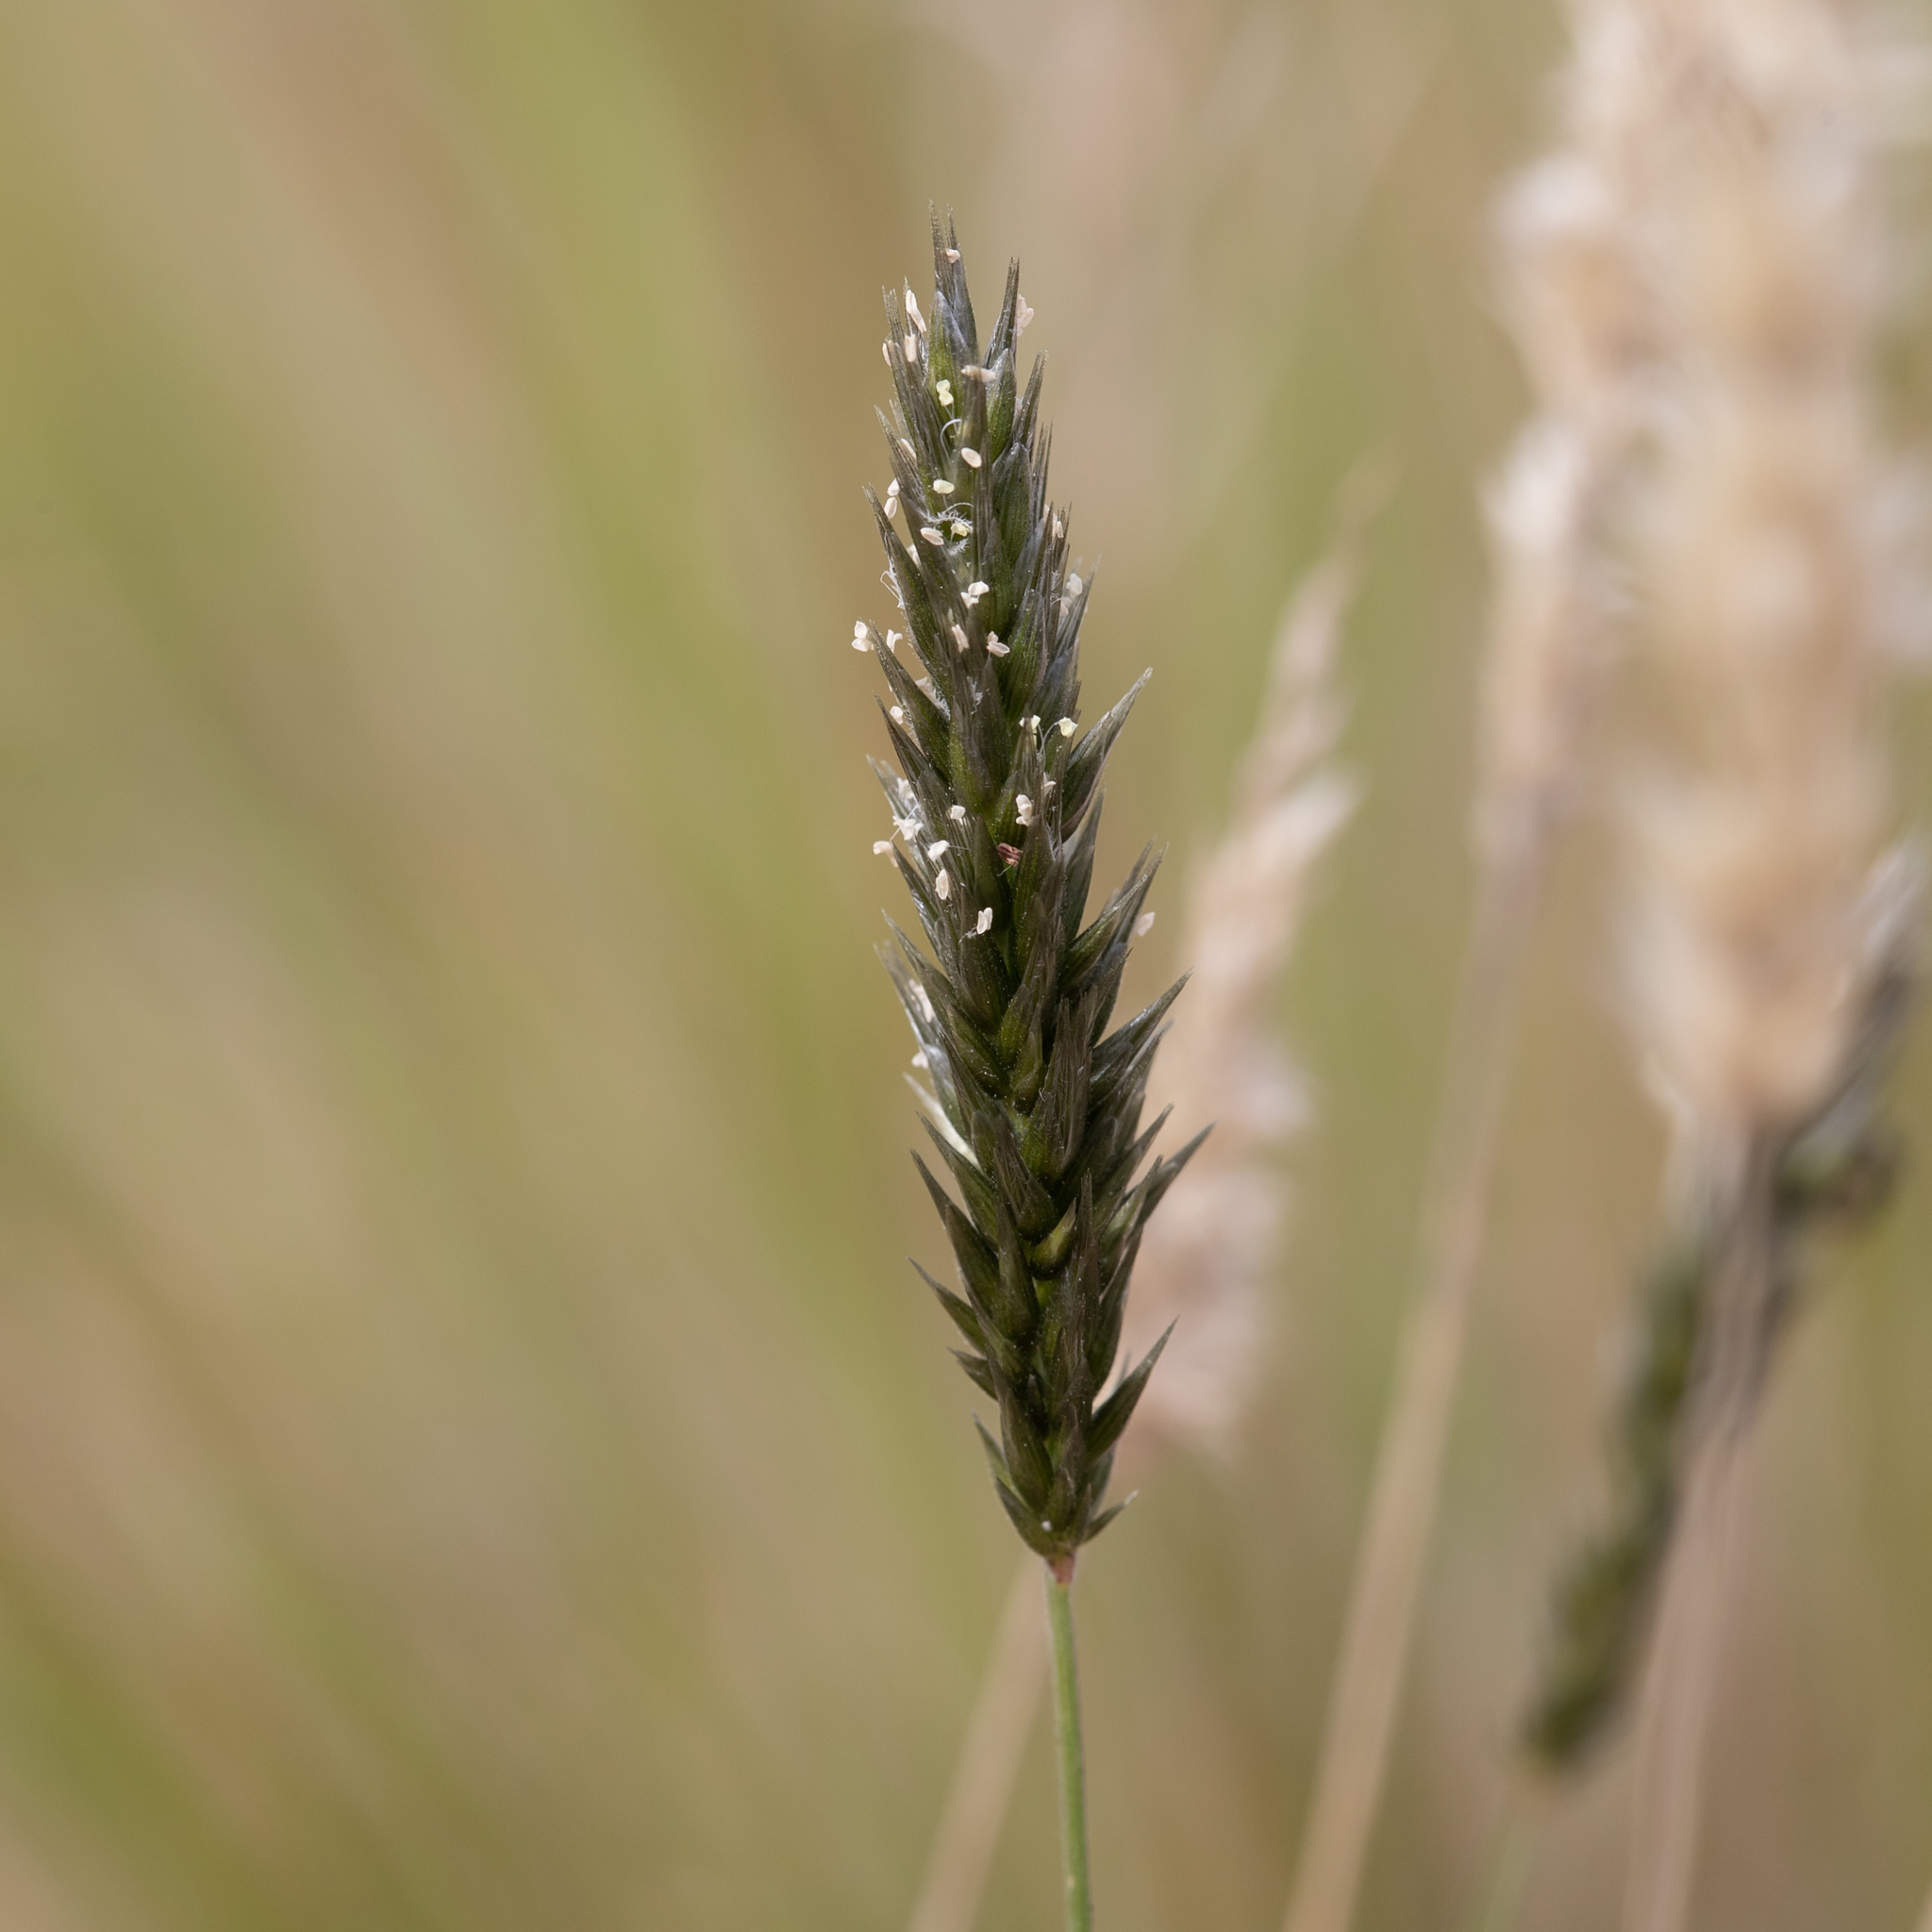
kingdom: Plantae
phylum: Tracheophyta
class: Liliopsida
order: Poales
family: Poaceae
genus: Enneapogon
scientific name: Enneapogon nigricans
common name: Pappus grass
